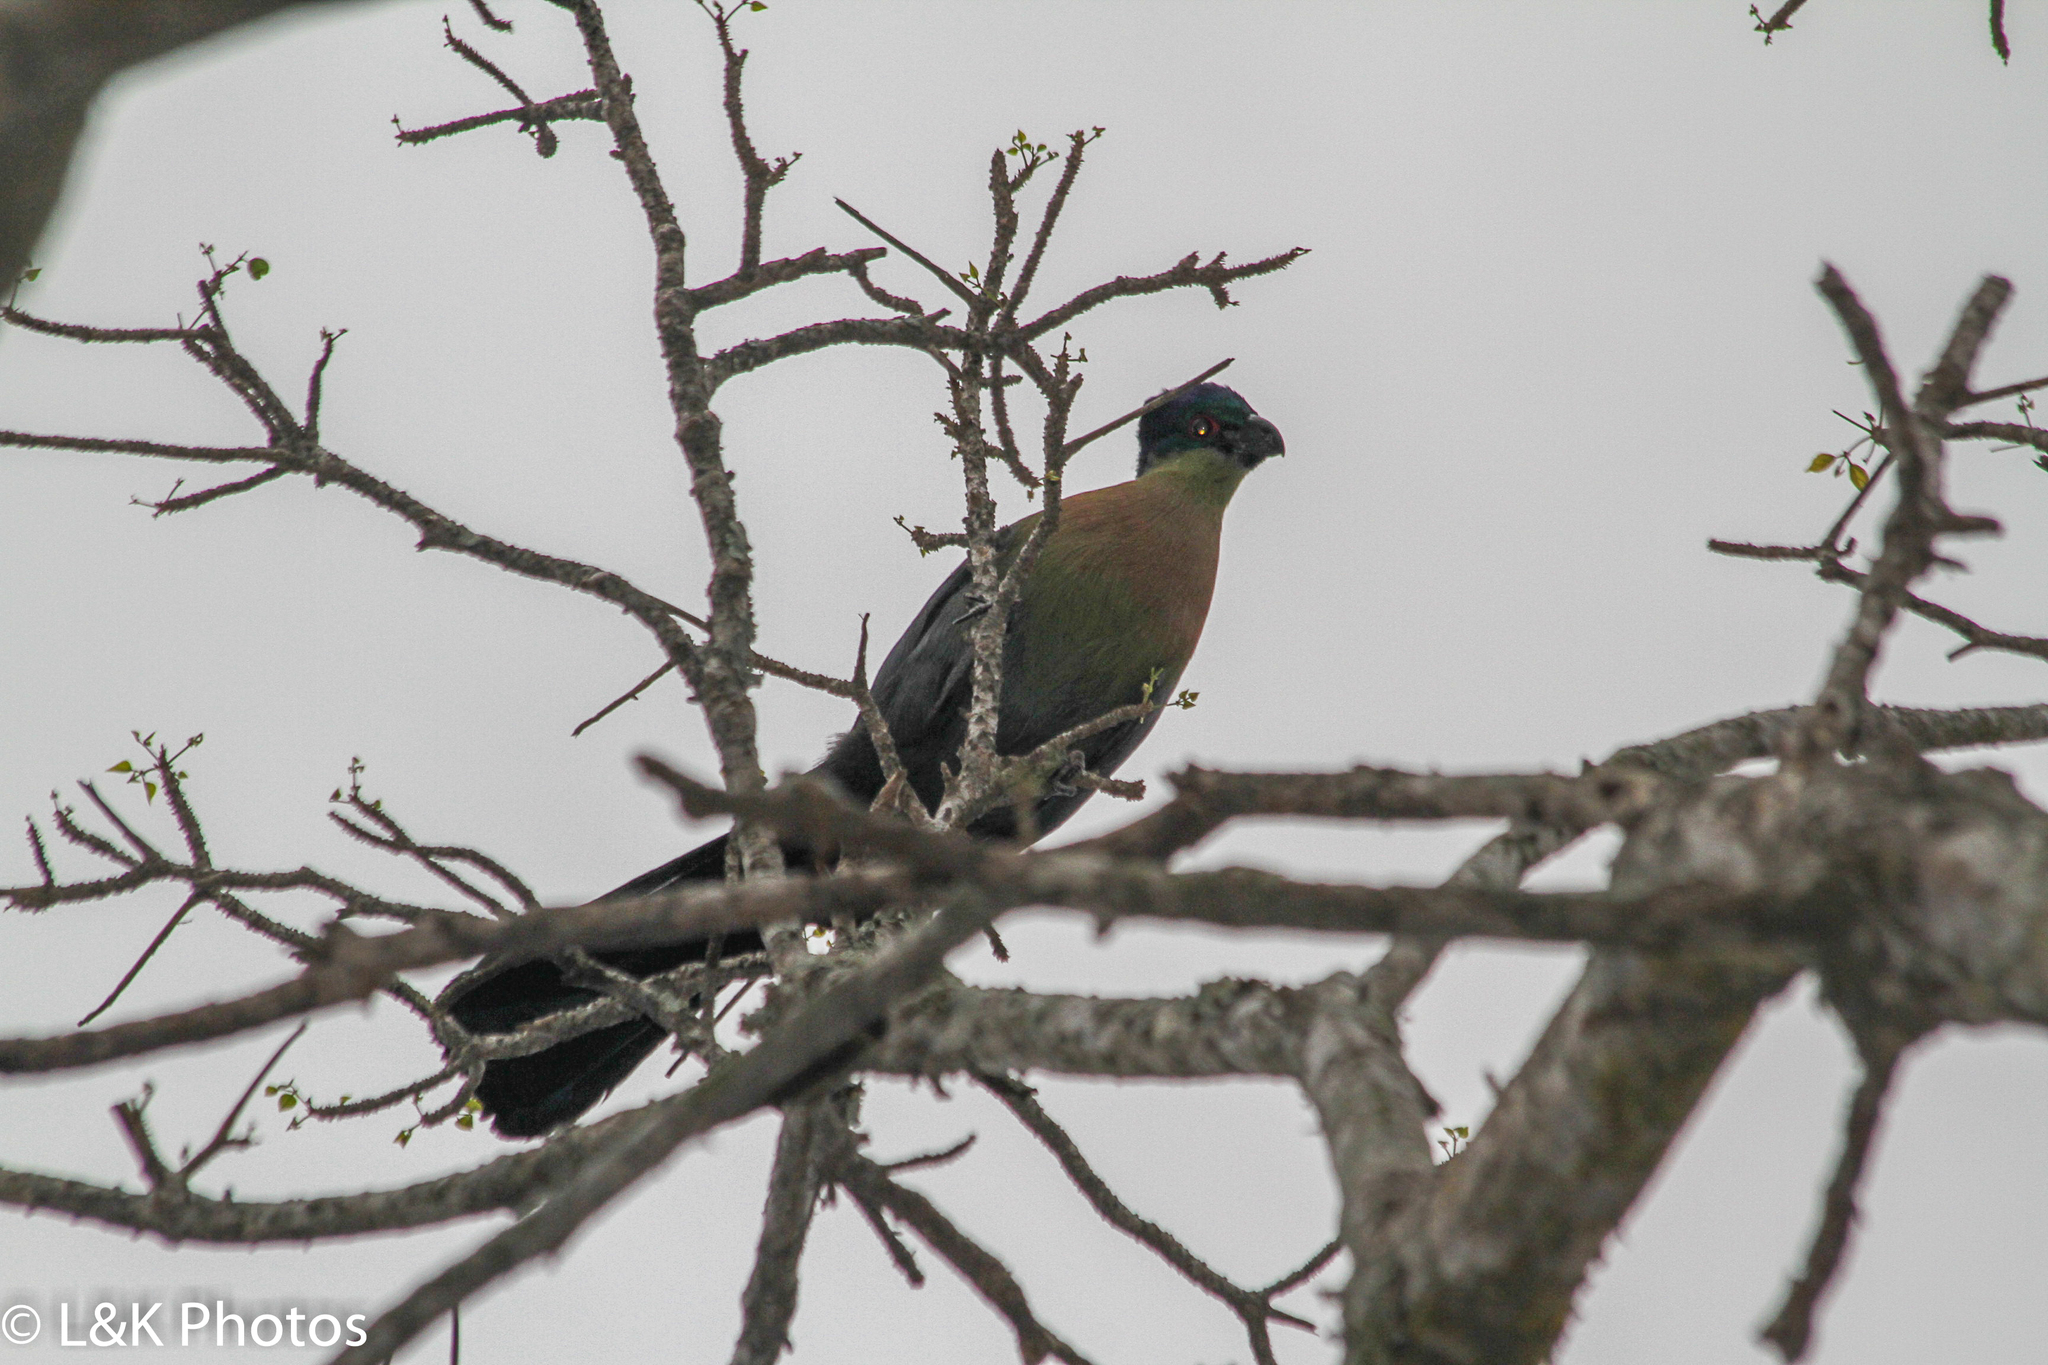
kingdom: Animalia
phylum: Chordata
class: Aves
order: Musophagiformes
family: Musophagidae
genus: Tauraco
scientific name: Tauraco porphyreolophus
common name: Purple-crested turaco
